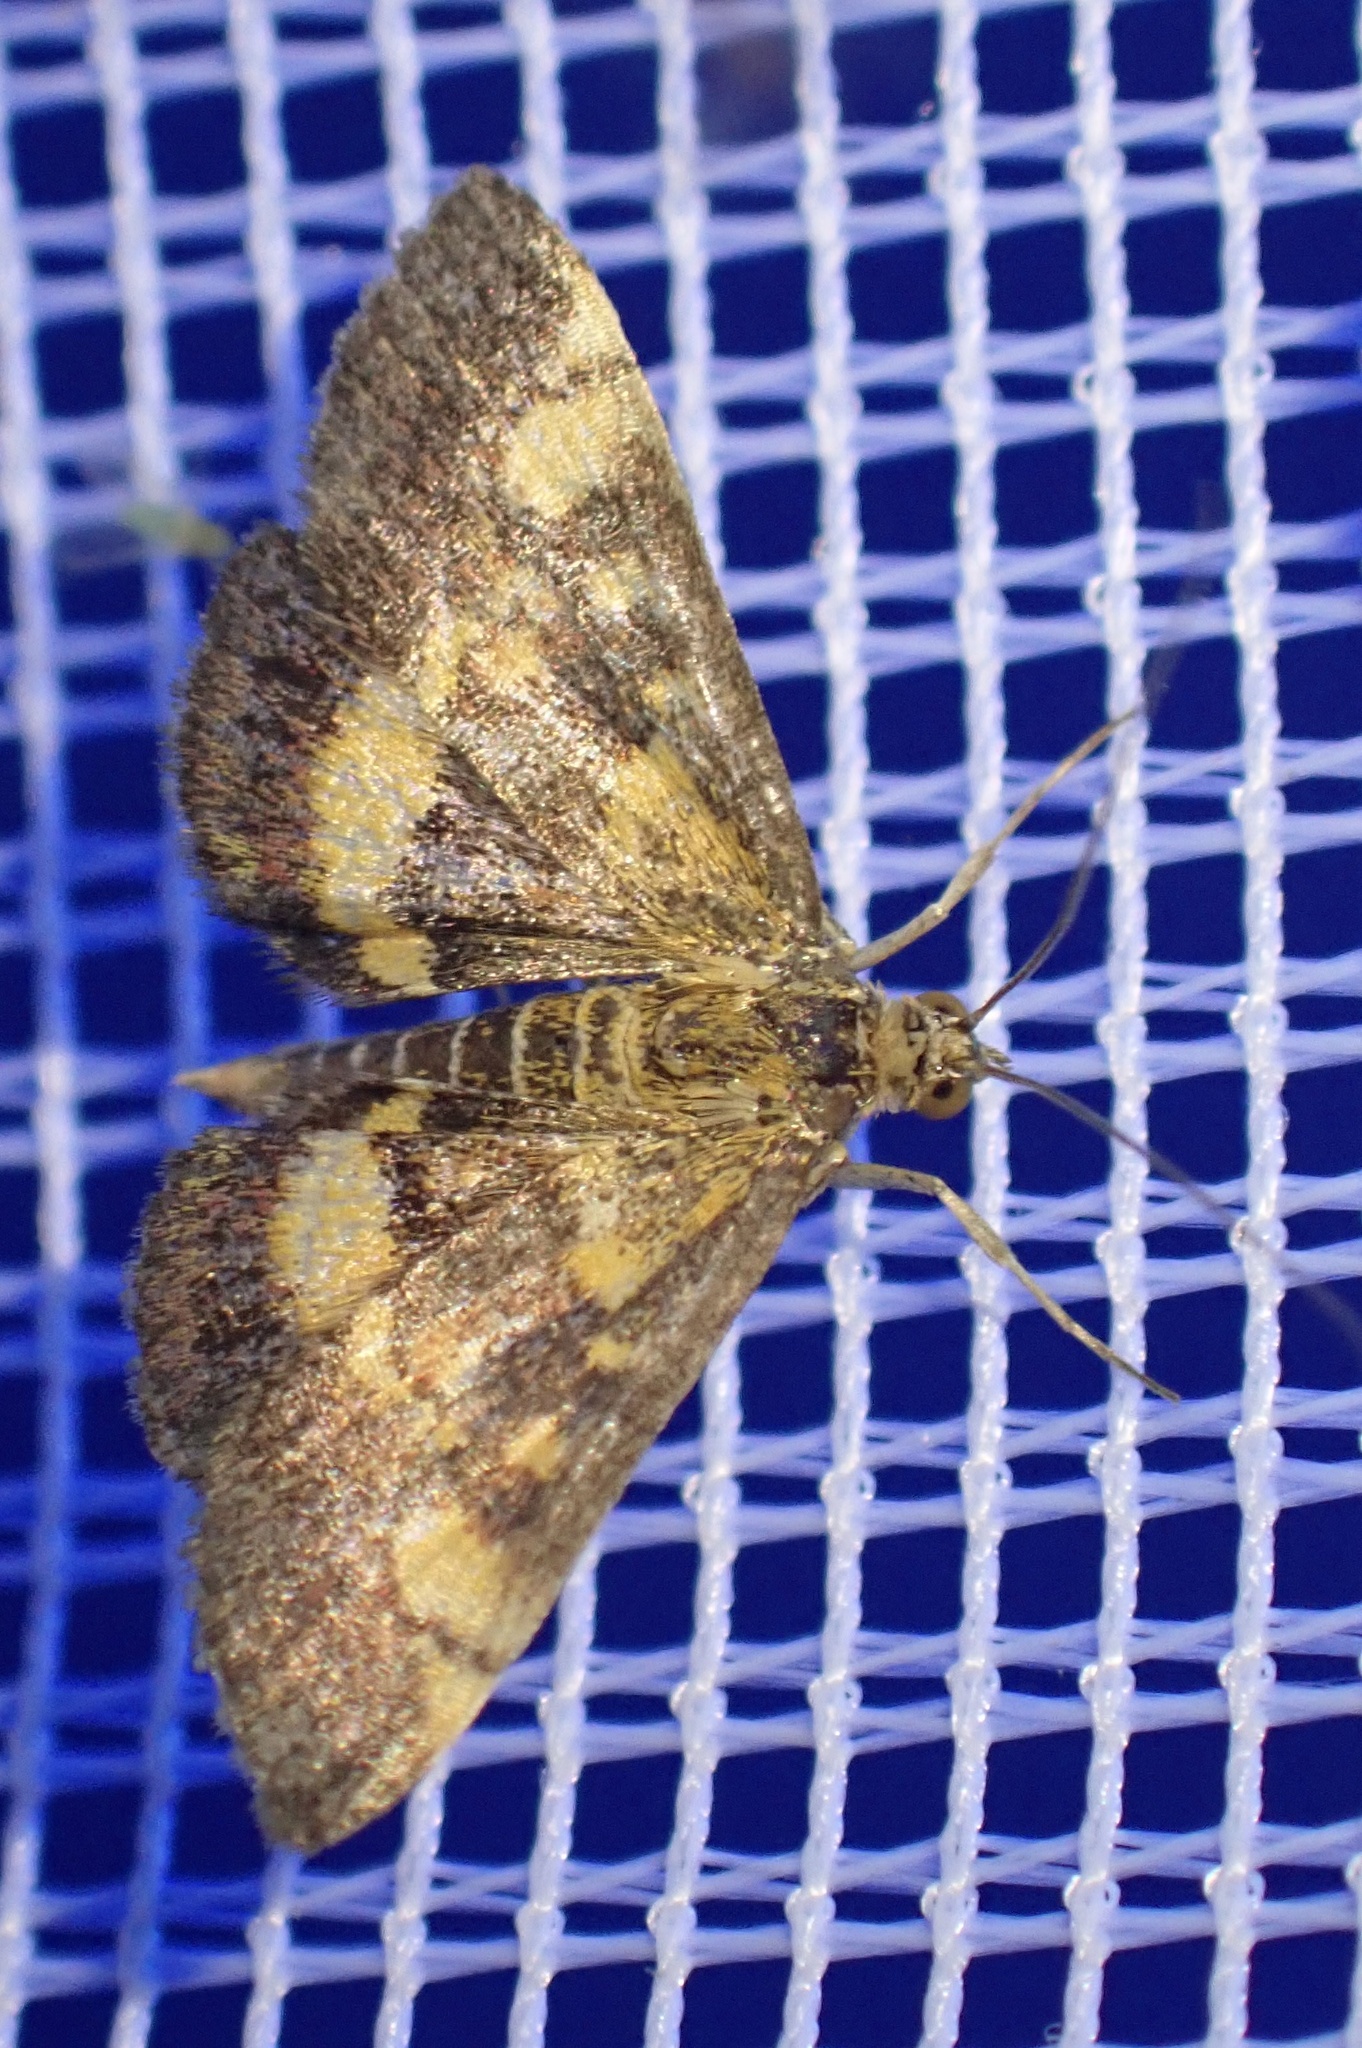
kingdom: Animalia
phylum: Arthropoda
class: Insecta
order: Lepidoptera
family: Crambidae
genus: Pyrausta
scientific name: Pyrausta aurata
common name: Small purple & gold
